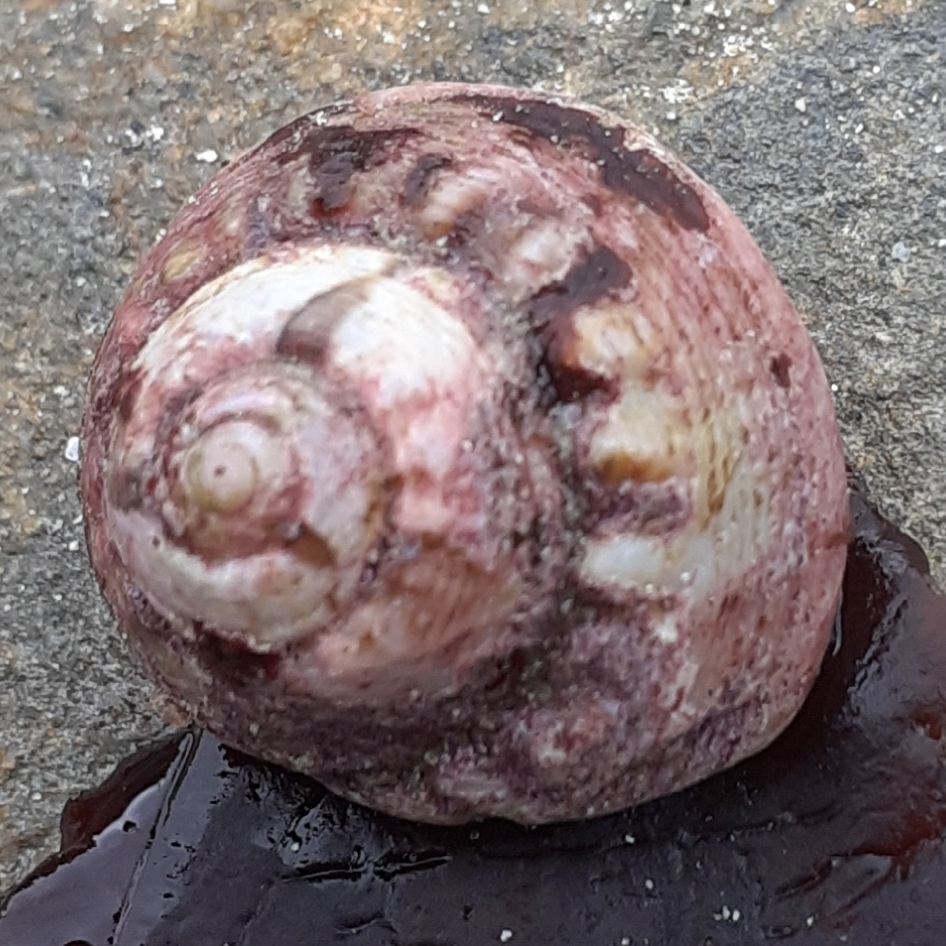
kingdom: Animalia
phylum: Mollusca
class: Gastropoda
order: Trochida
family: Trochidae
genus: Gibbula
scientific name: Gibbula magus
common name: Turban top shell
